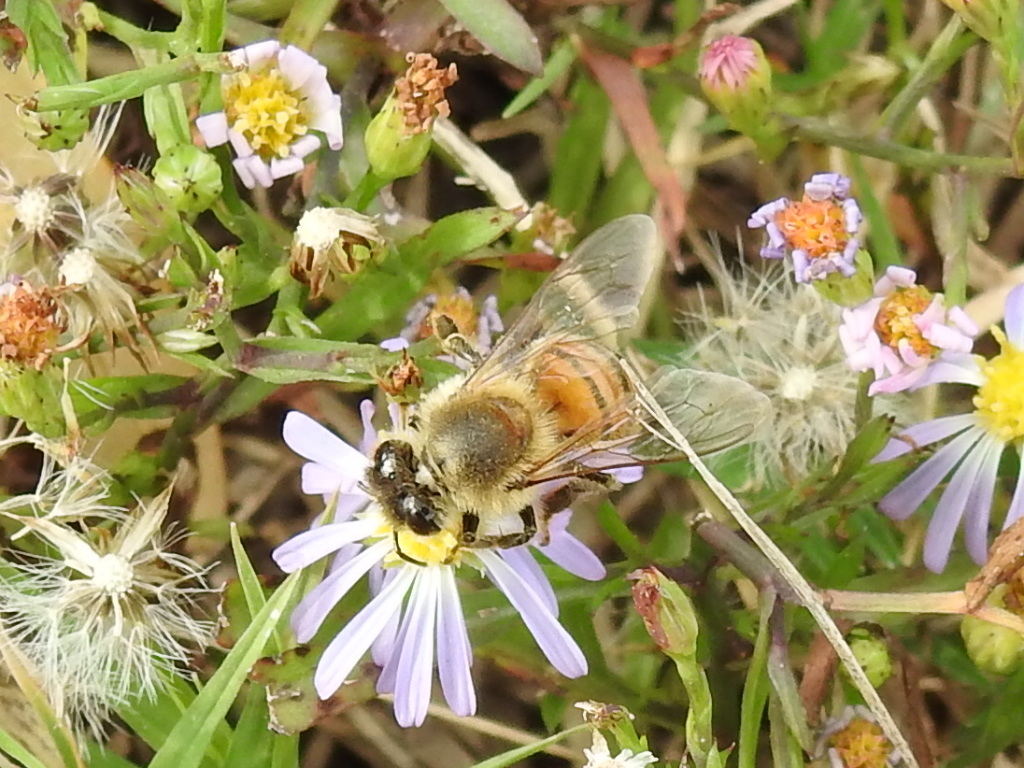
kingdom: Animalia
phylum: Arthropoda
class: Insecta
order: Hymenoptera
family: Apidae
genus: Apis
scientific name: Apis mellifera
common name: Honey bee
